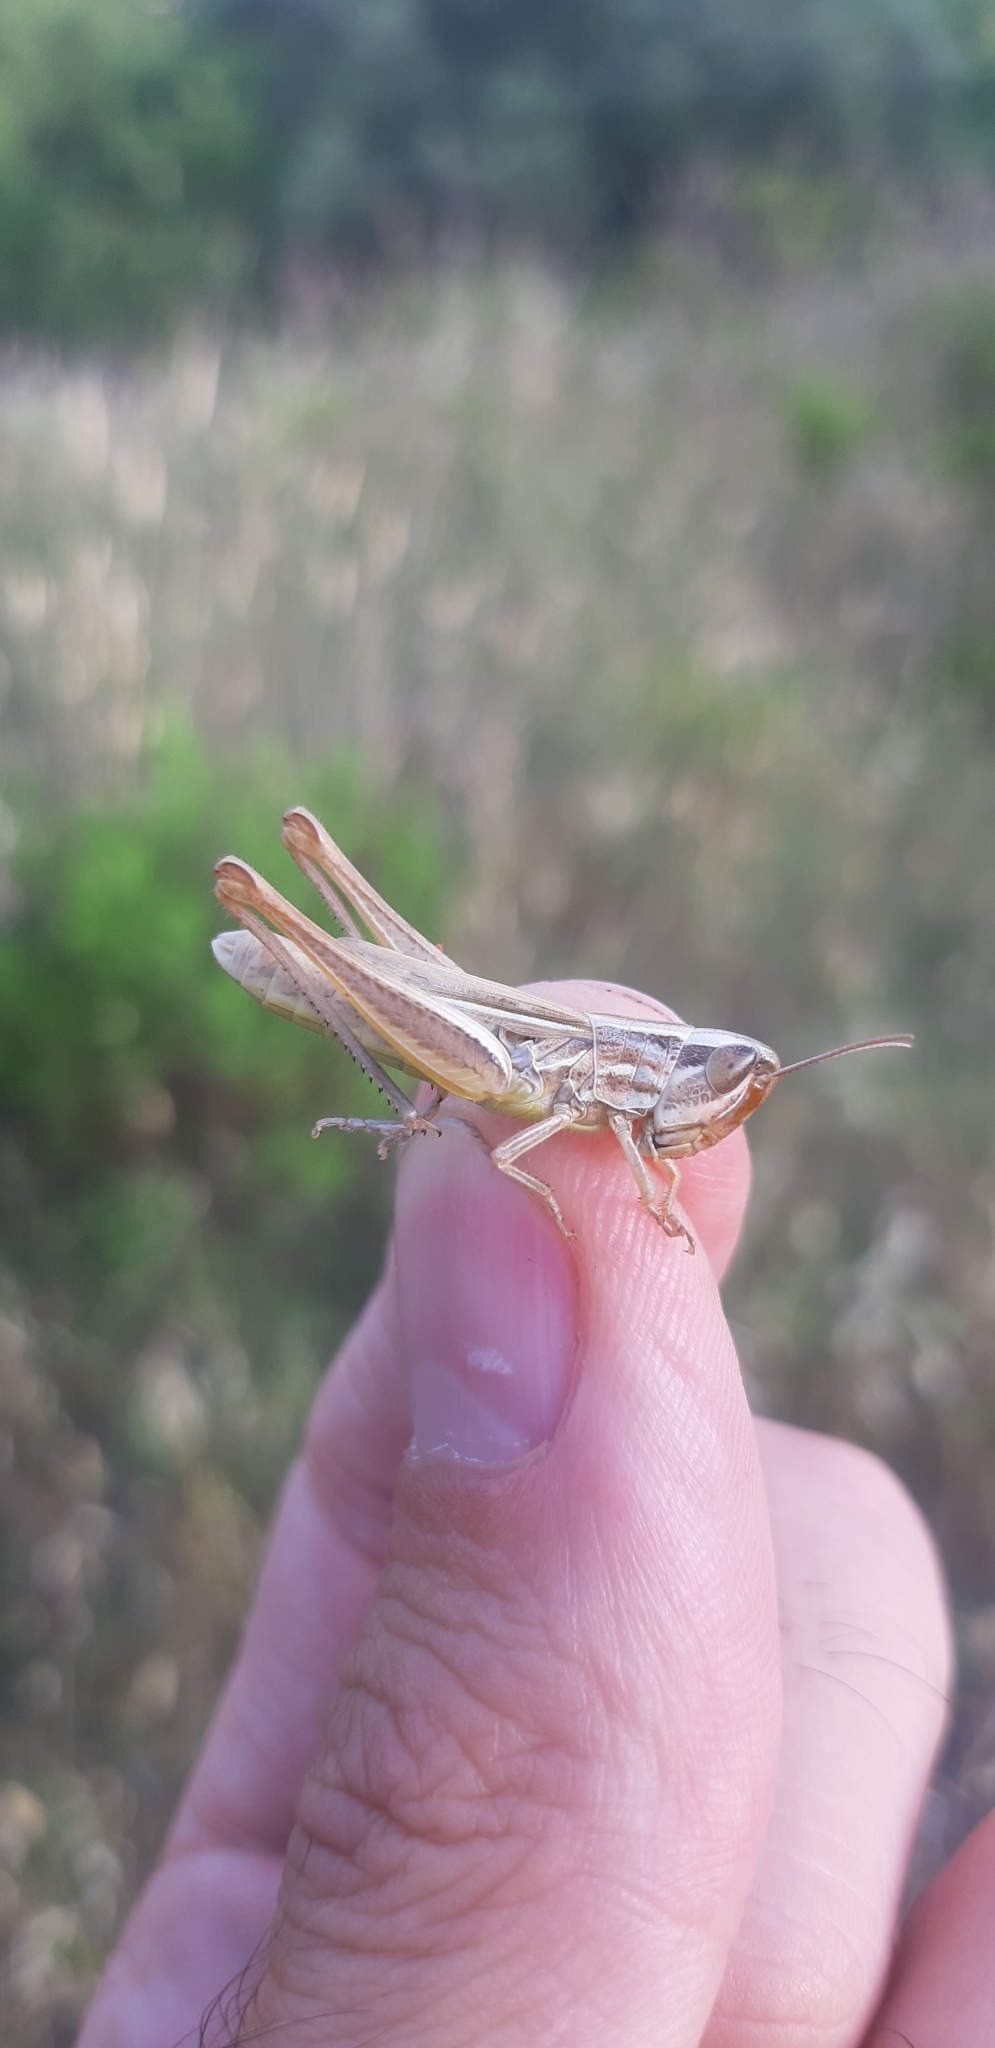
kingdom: Animalia
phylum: Arthropoda
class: Insecta
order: Orthoptera
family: Acrididae
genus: Euchorthippus
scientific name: Euchorthippus declivus
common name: Common straw grasshopper
